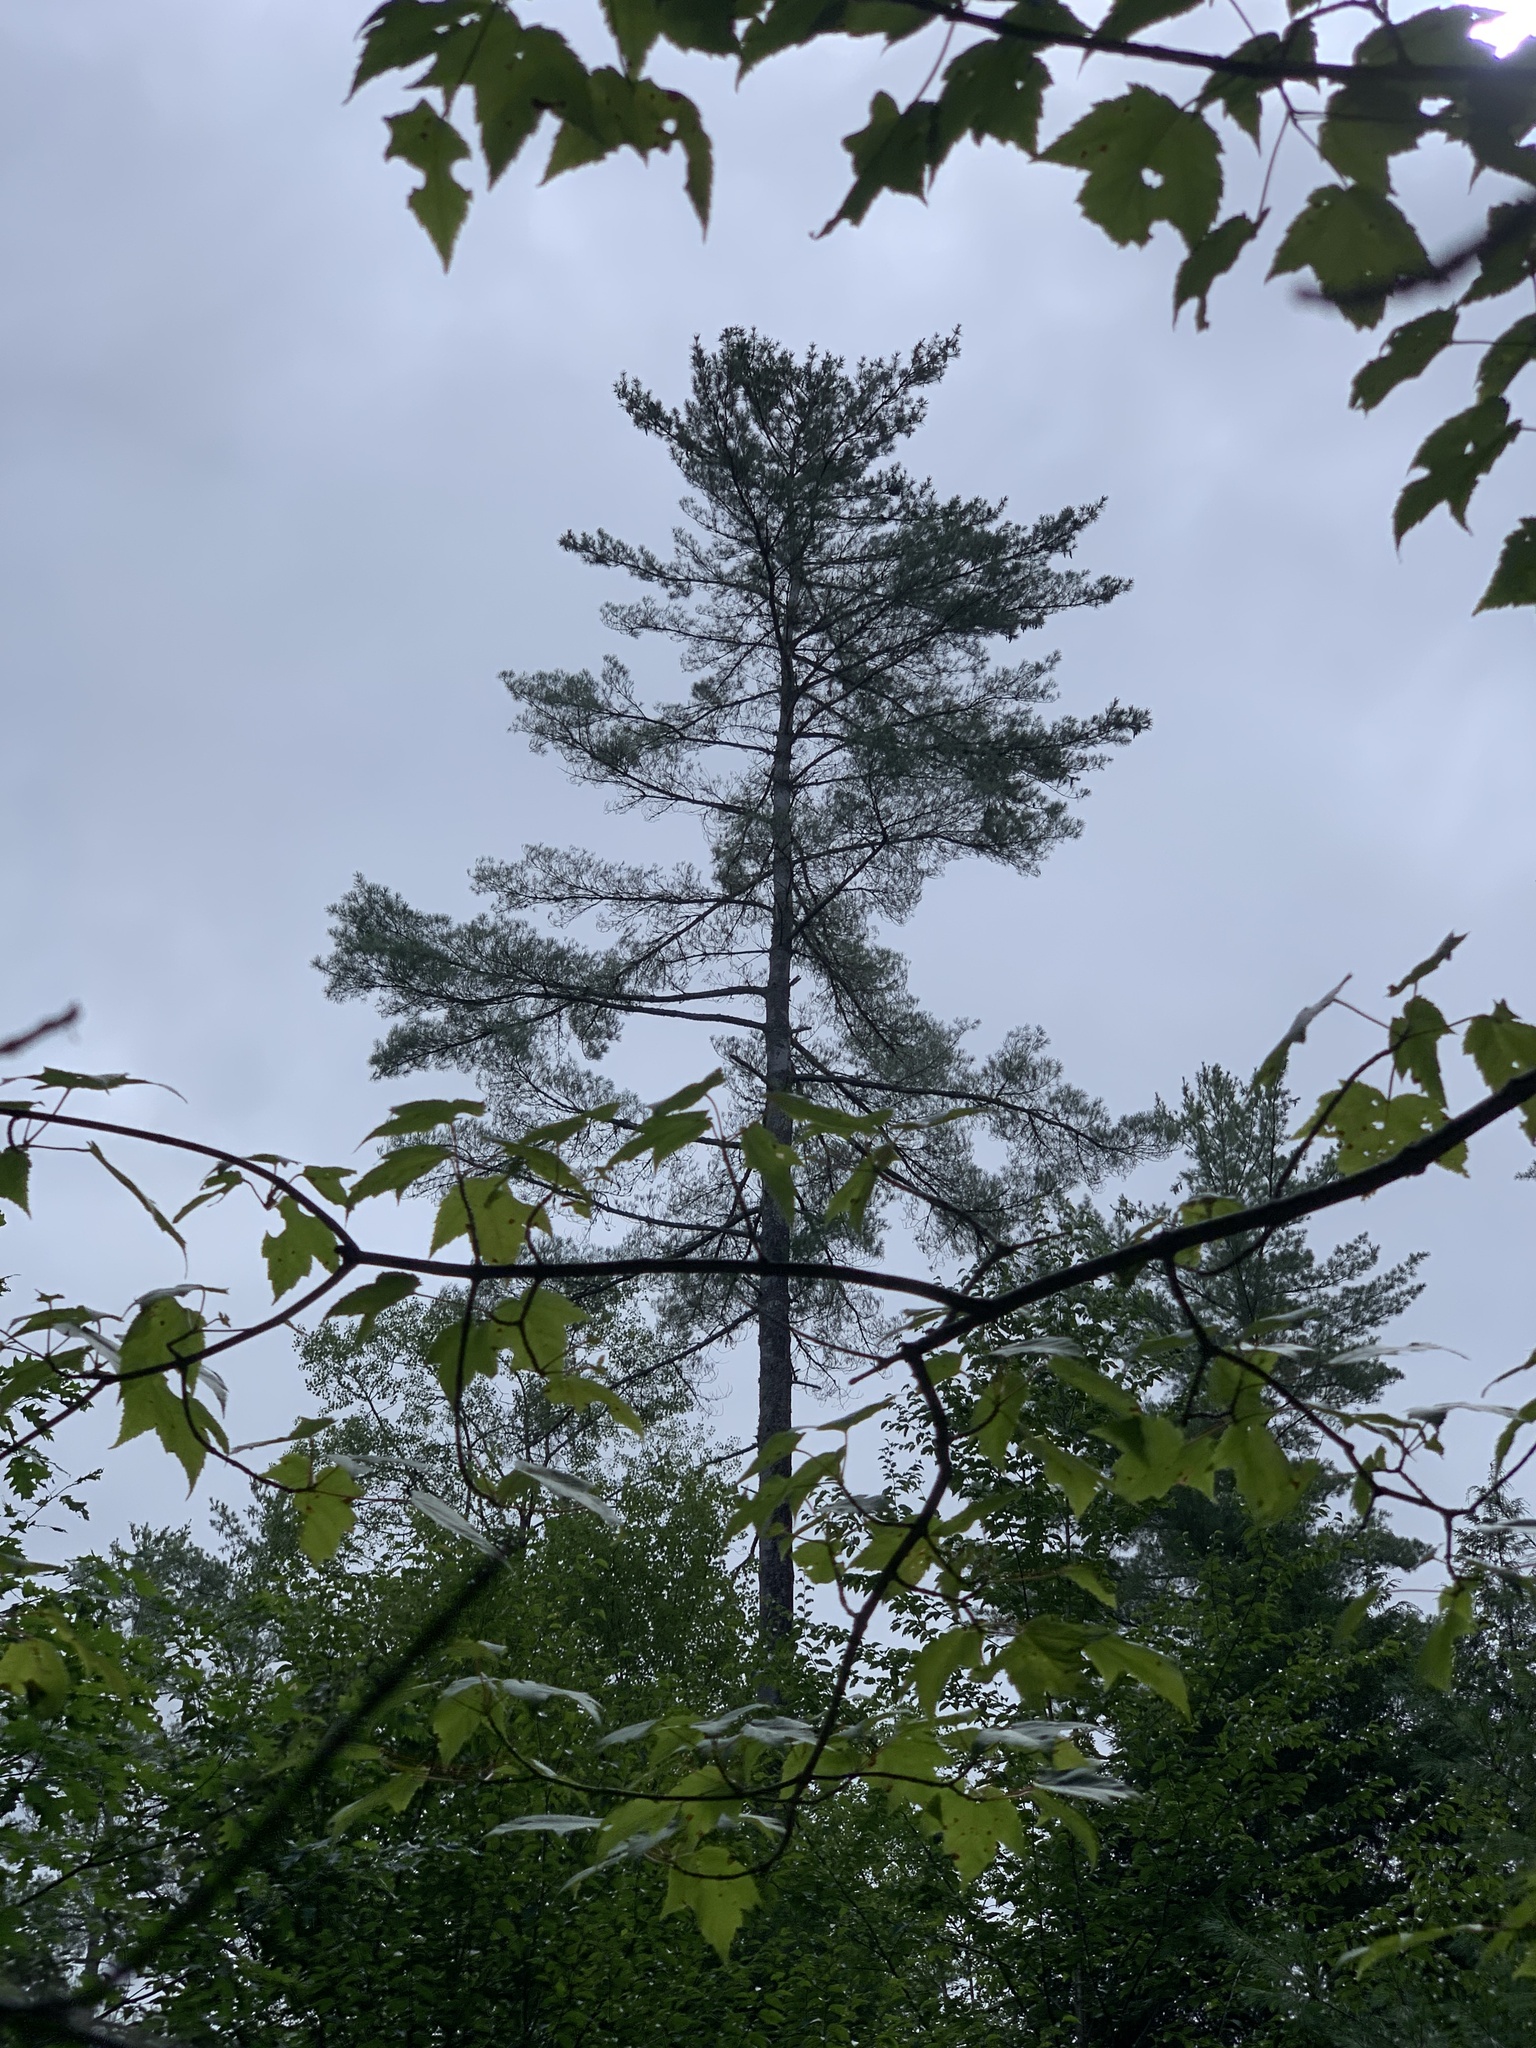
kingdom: Plantae
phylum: Tracheophyta
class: Pinopsida
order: Pinales
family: Pinaceae
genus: Pinus
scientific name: Pinus strobus
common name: Weymouth pine
